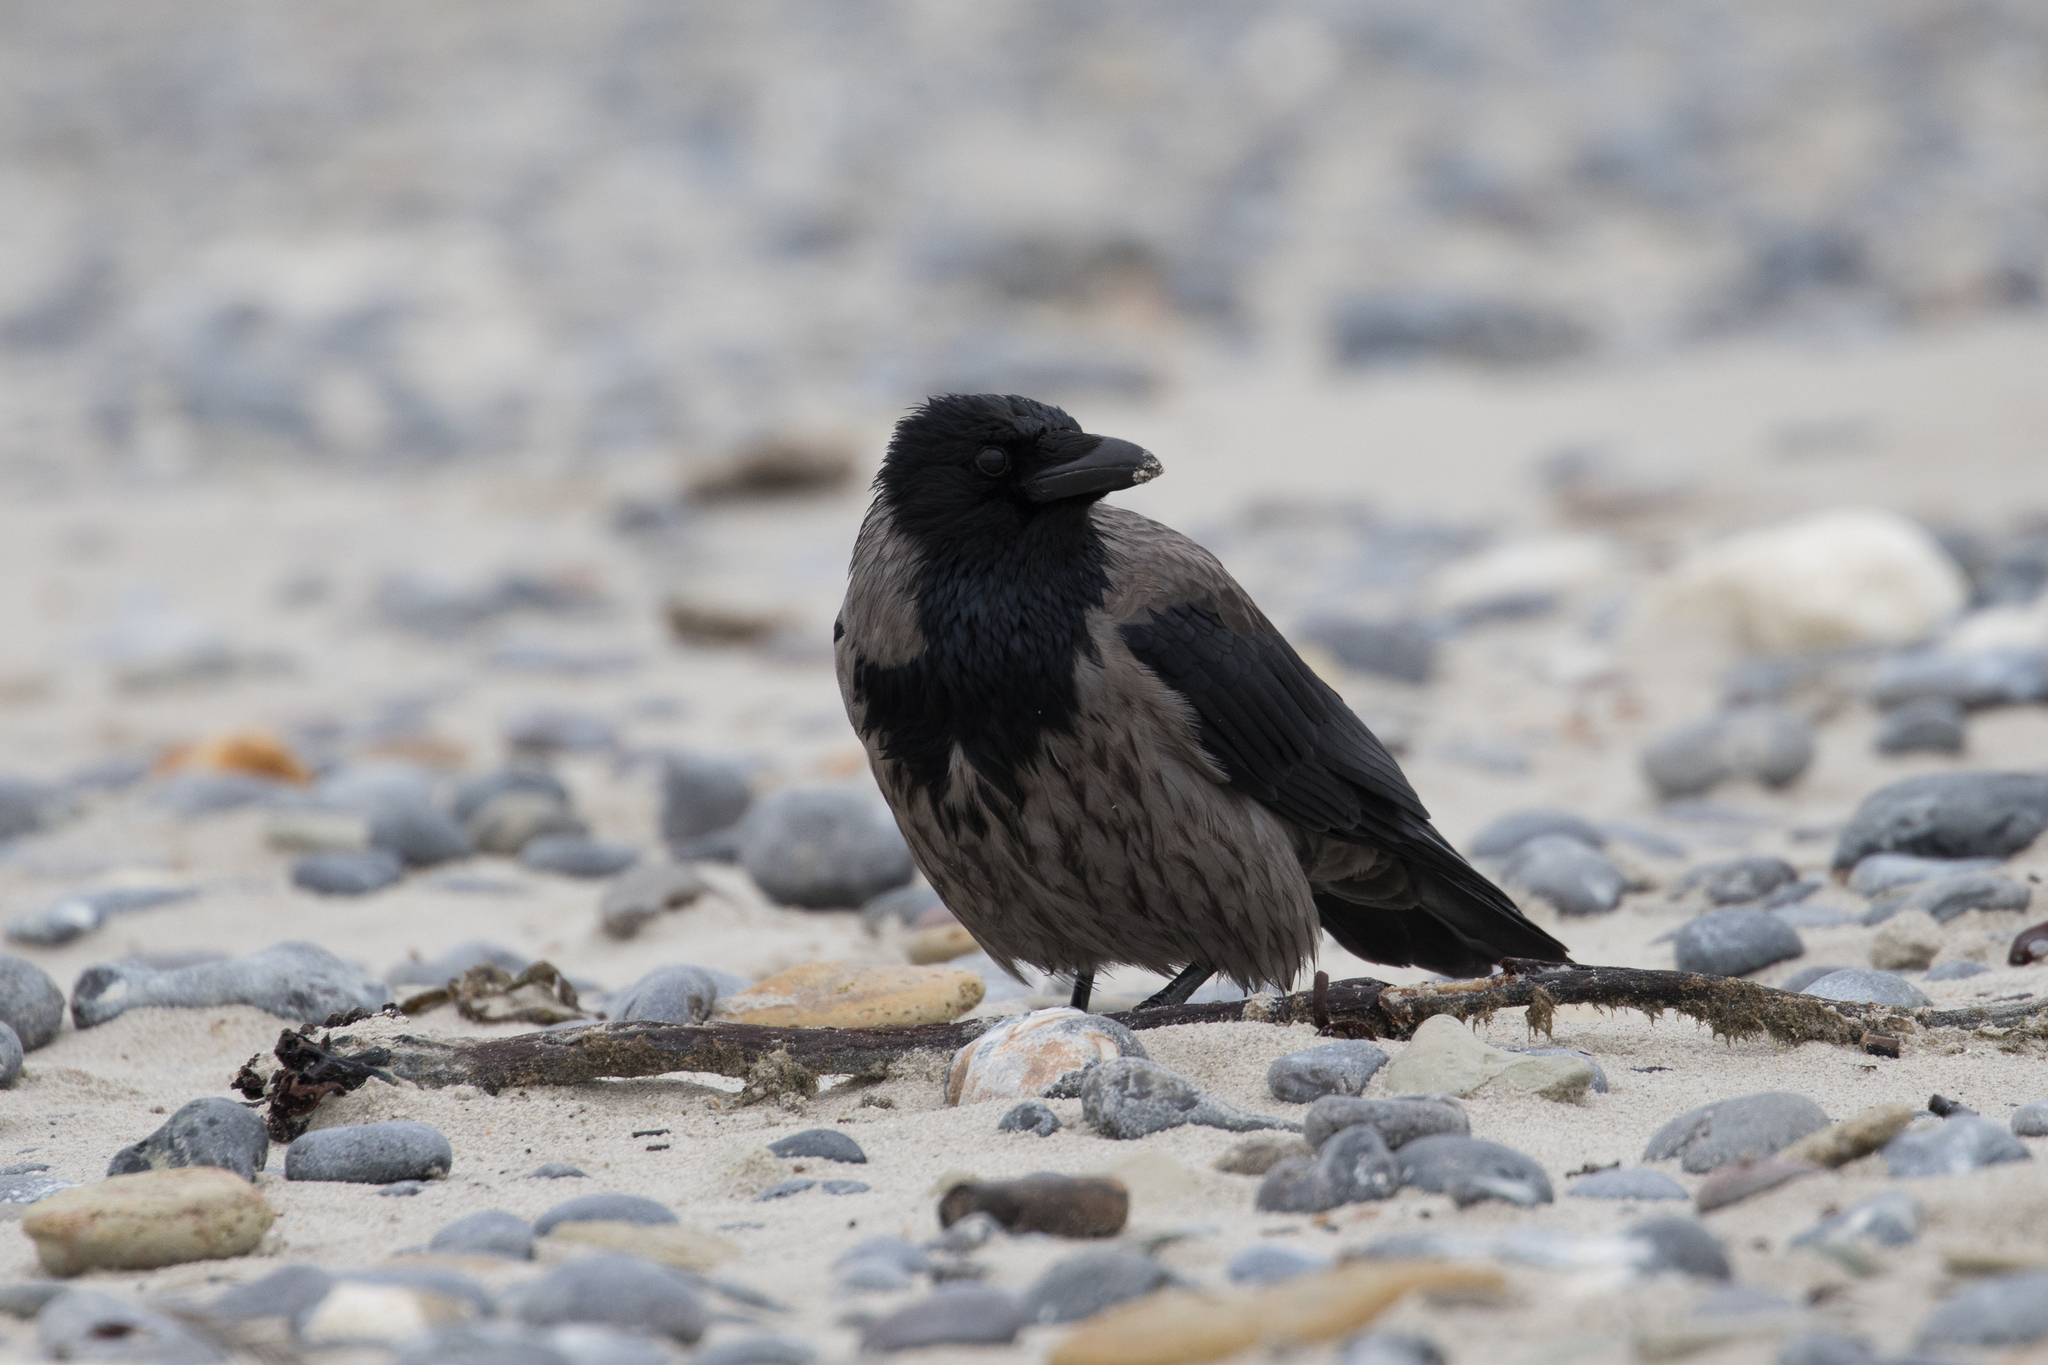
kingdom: Animalia
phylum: Chordata
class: Aves
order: Passeriformes
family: Corvidae
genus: Corvus
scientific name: Corvus
